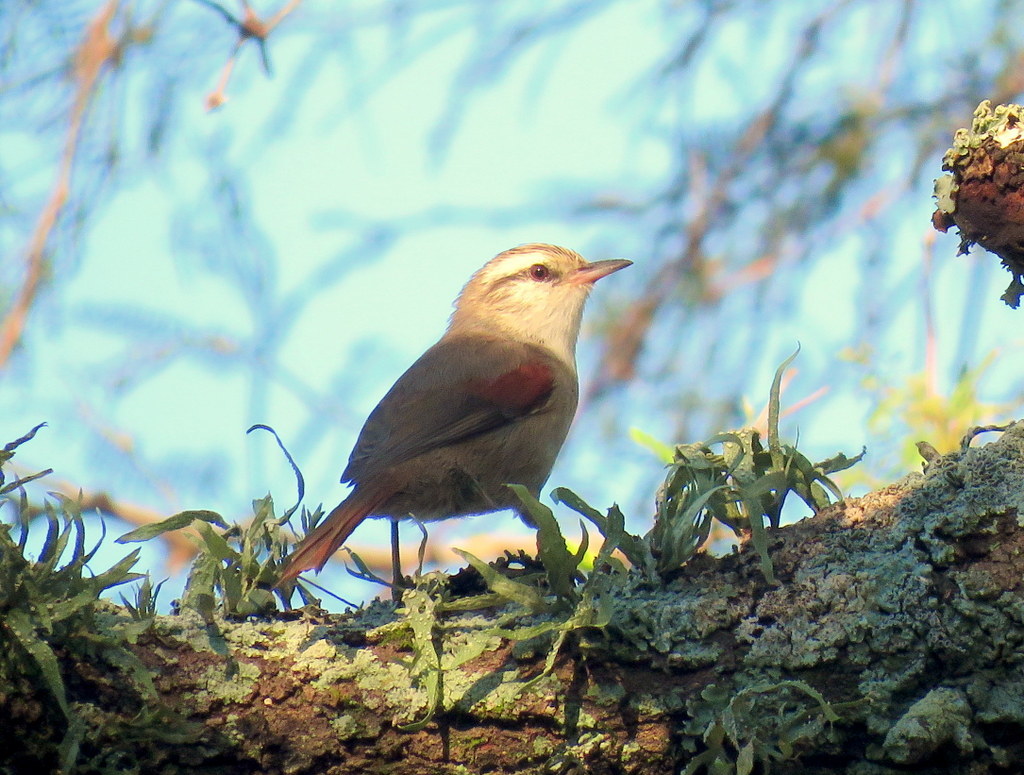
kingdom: Animalia
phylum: Chordata
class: Aves
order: Passeriformes
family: Furnariidae
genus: Cranioleuca
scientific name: Cranioleuca pyrrhophia
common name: Stripe-crowned spinetail
